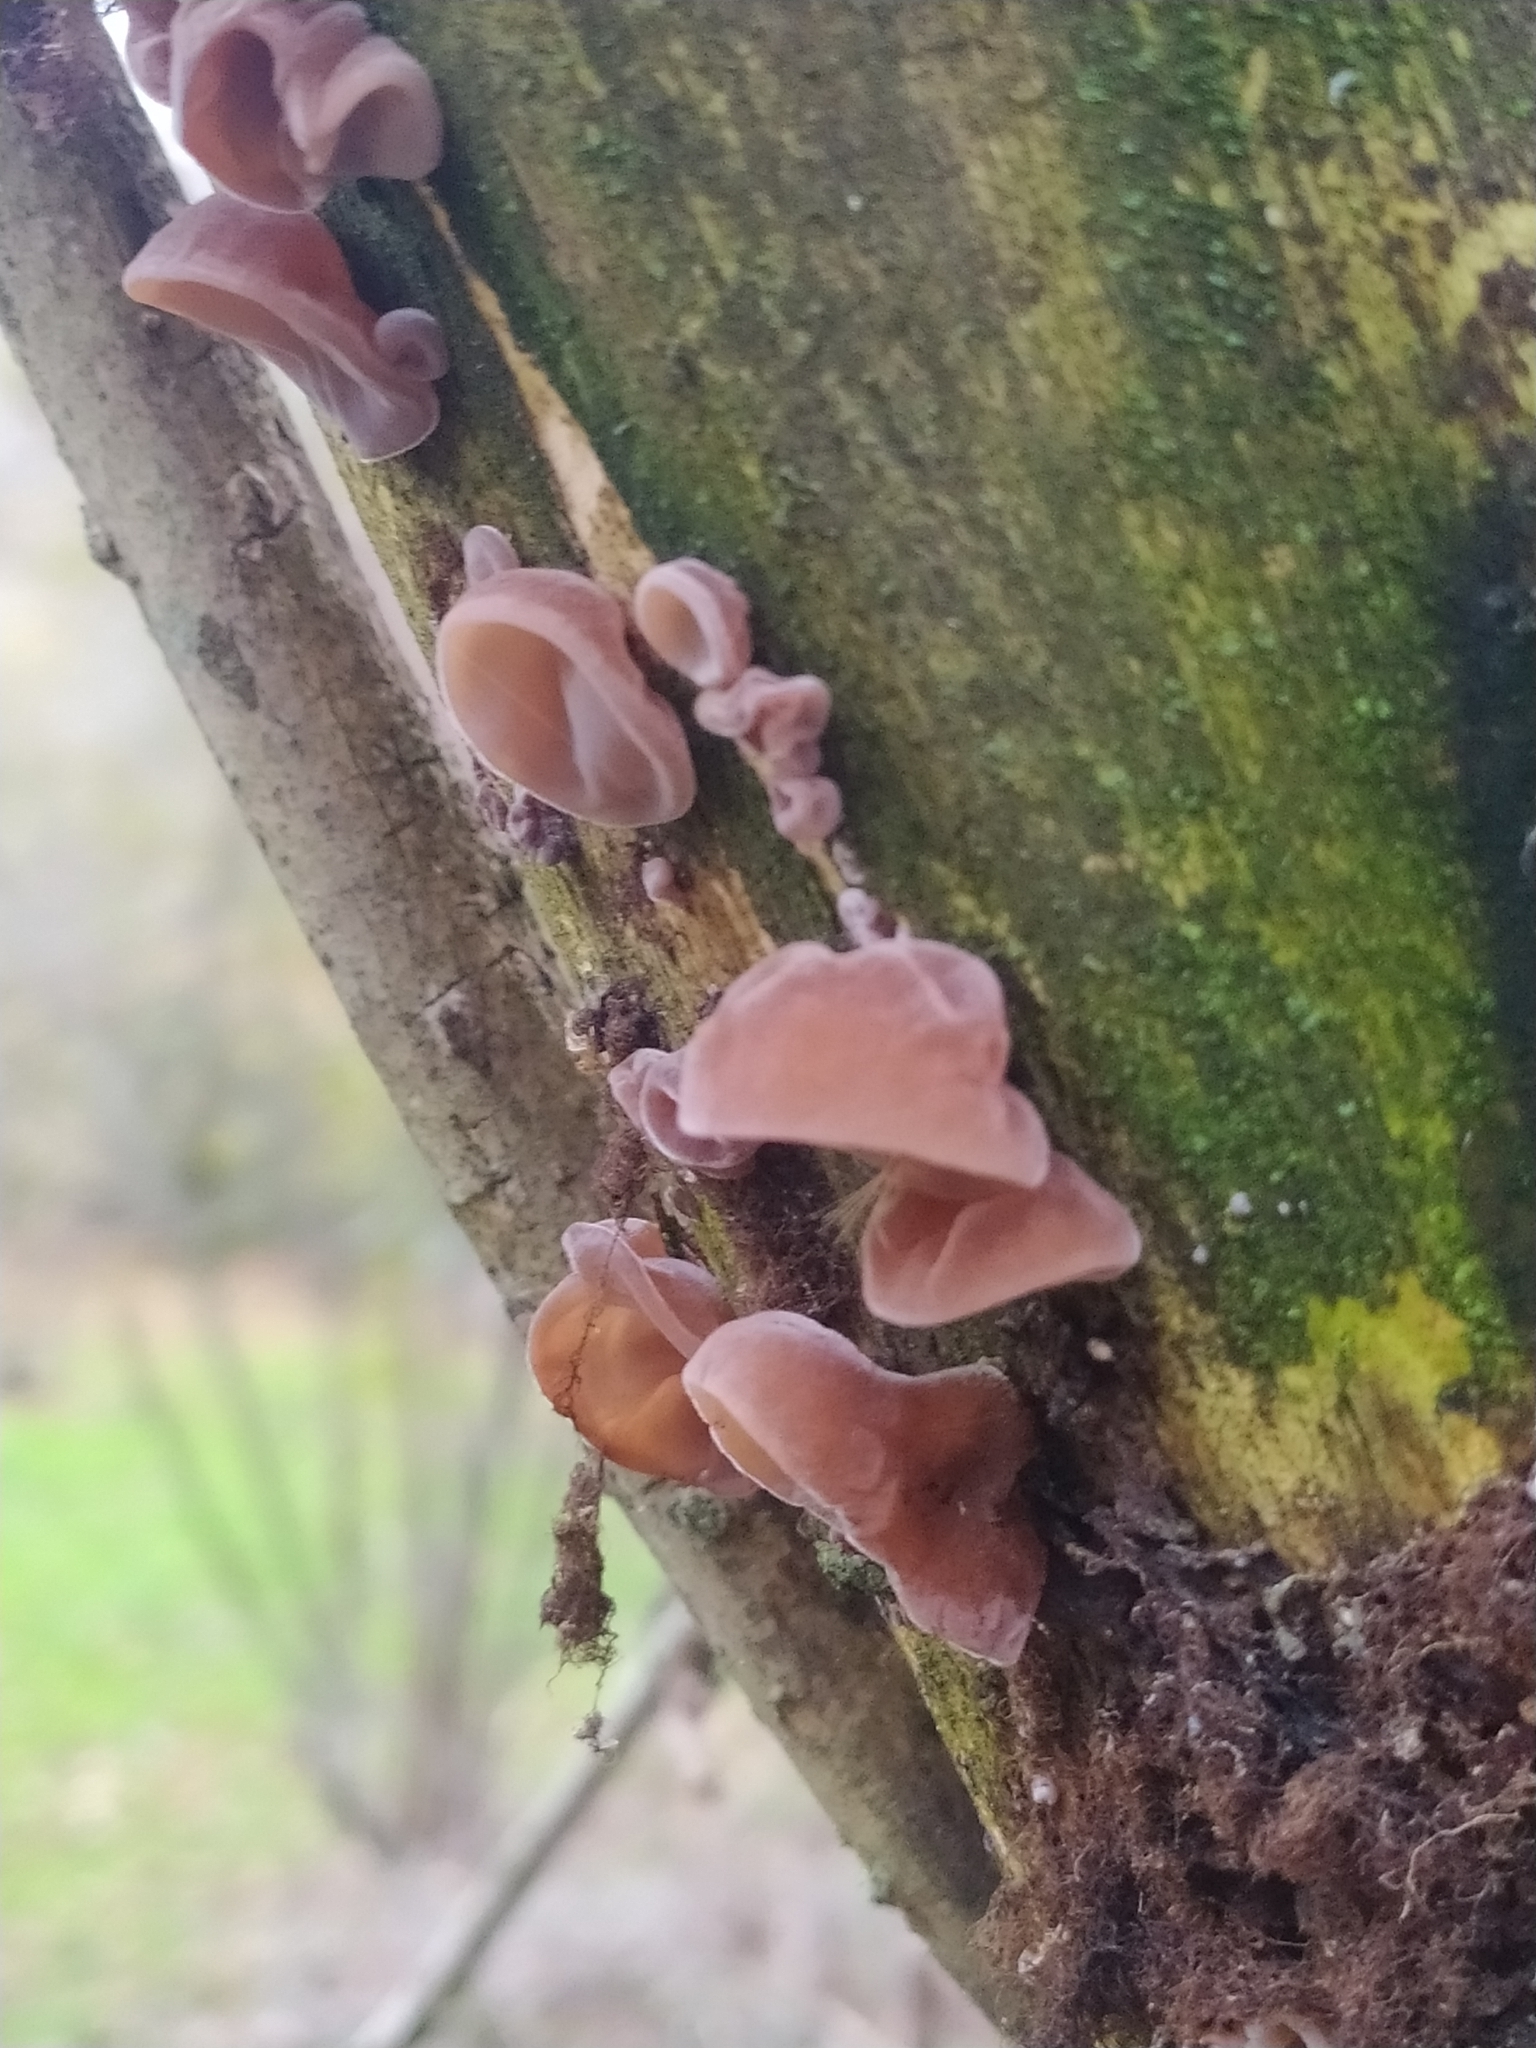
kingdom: Fungi
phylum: Basidiomycota
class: Agaricomycetes
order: Auriculariales
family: Auriculariaceae
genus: Auricularia
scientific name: Auricularia auricula-judae
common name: Jelly ear
